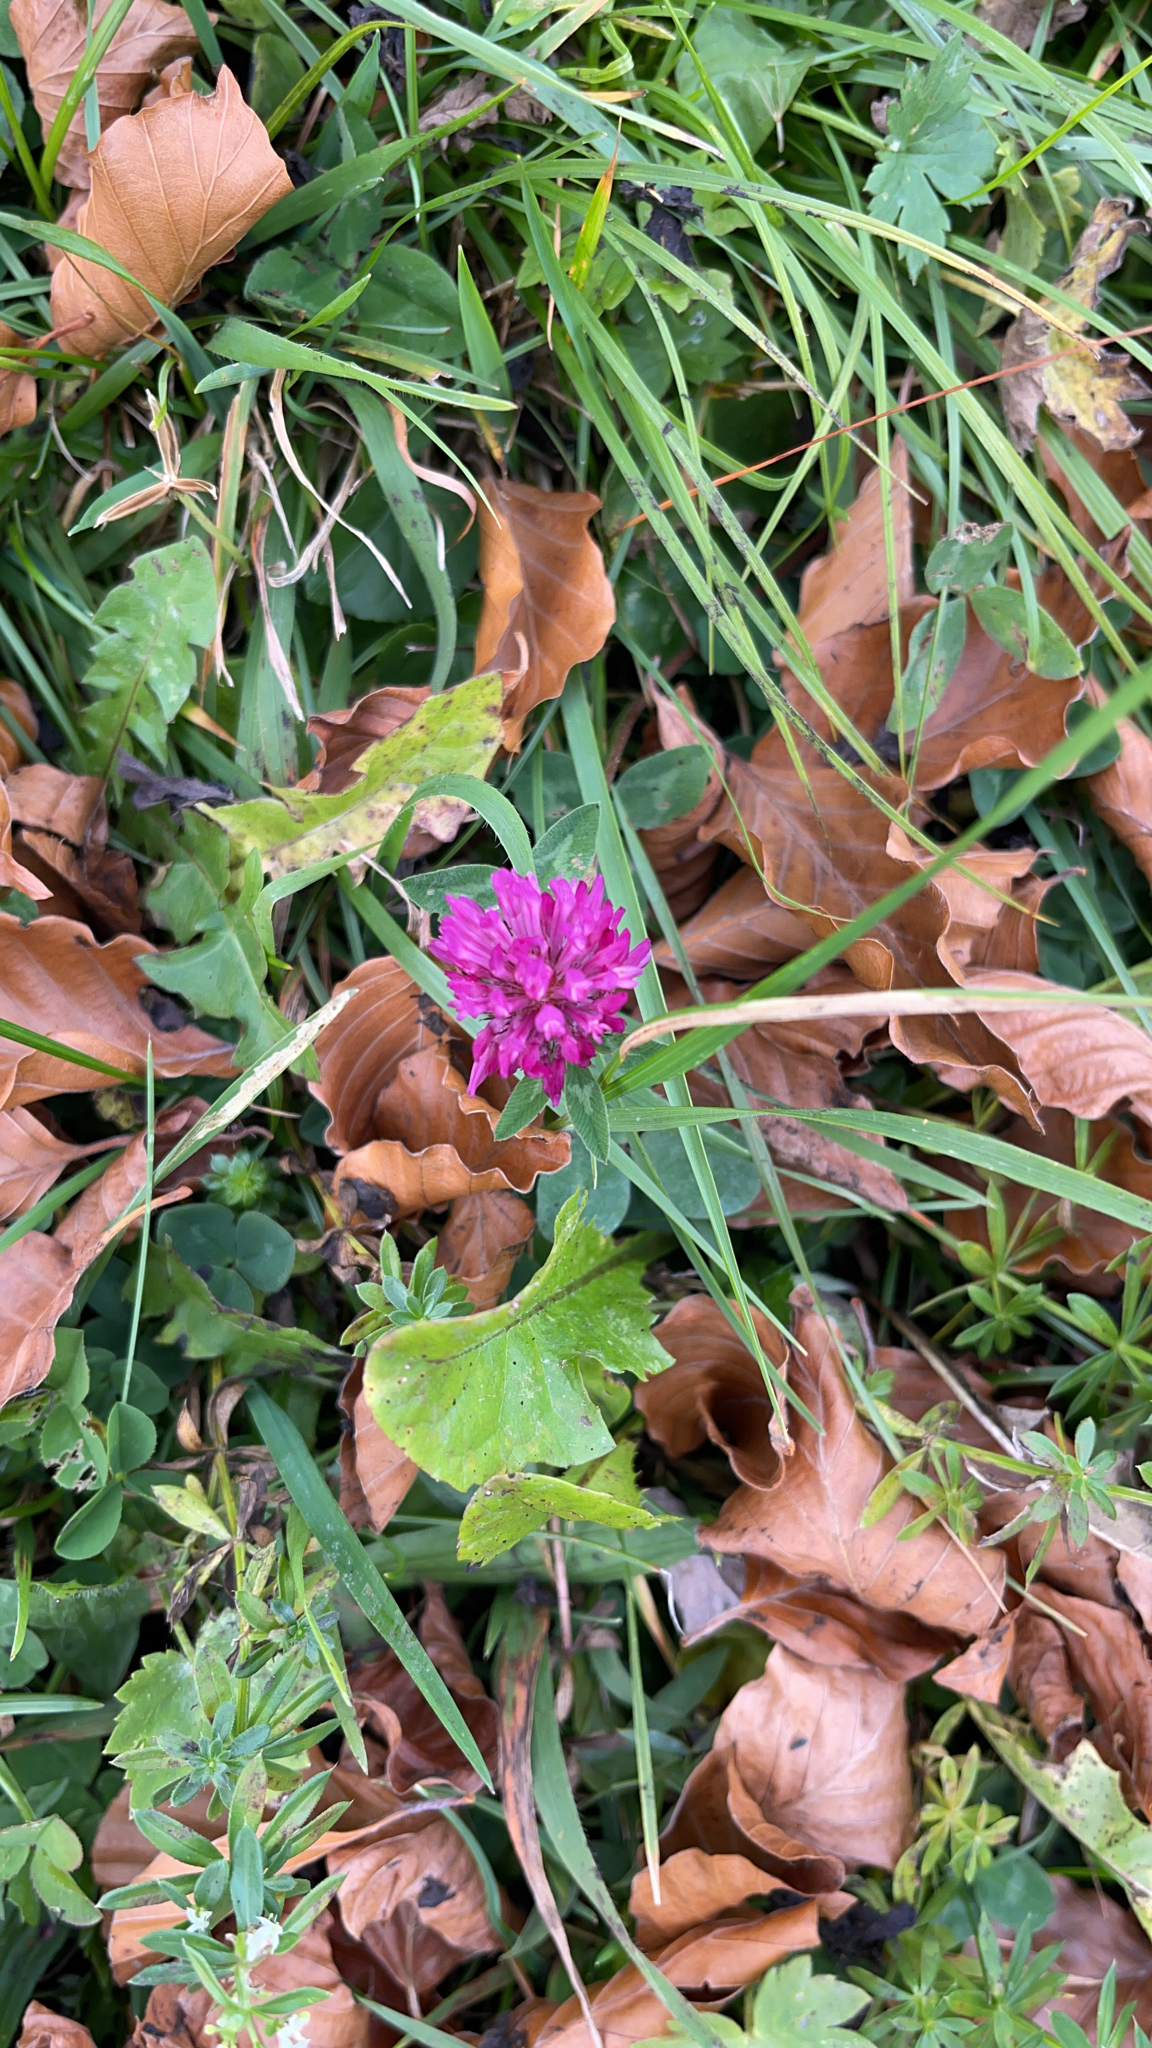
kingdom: Plantae
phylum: Tracheophyta
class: Magnoliopsida
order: Fabales
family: Fabaceae
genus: Trifolium
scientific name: Trifolium pratense
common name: Red clover
